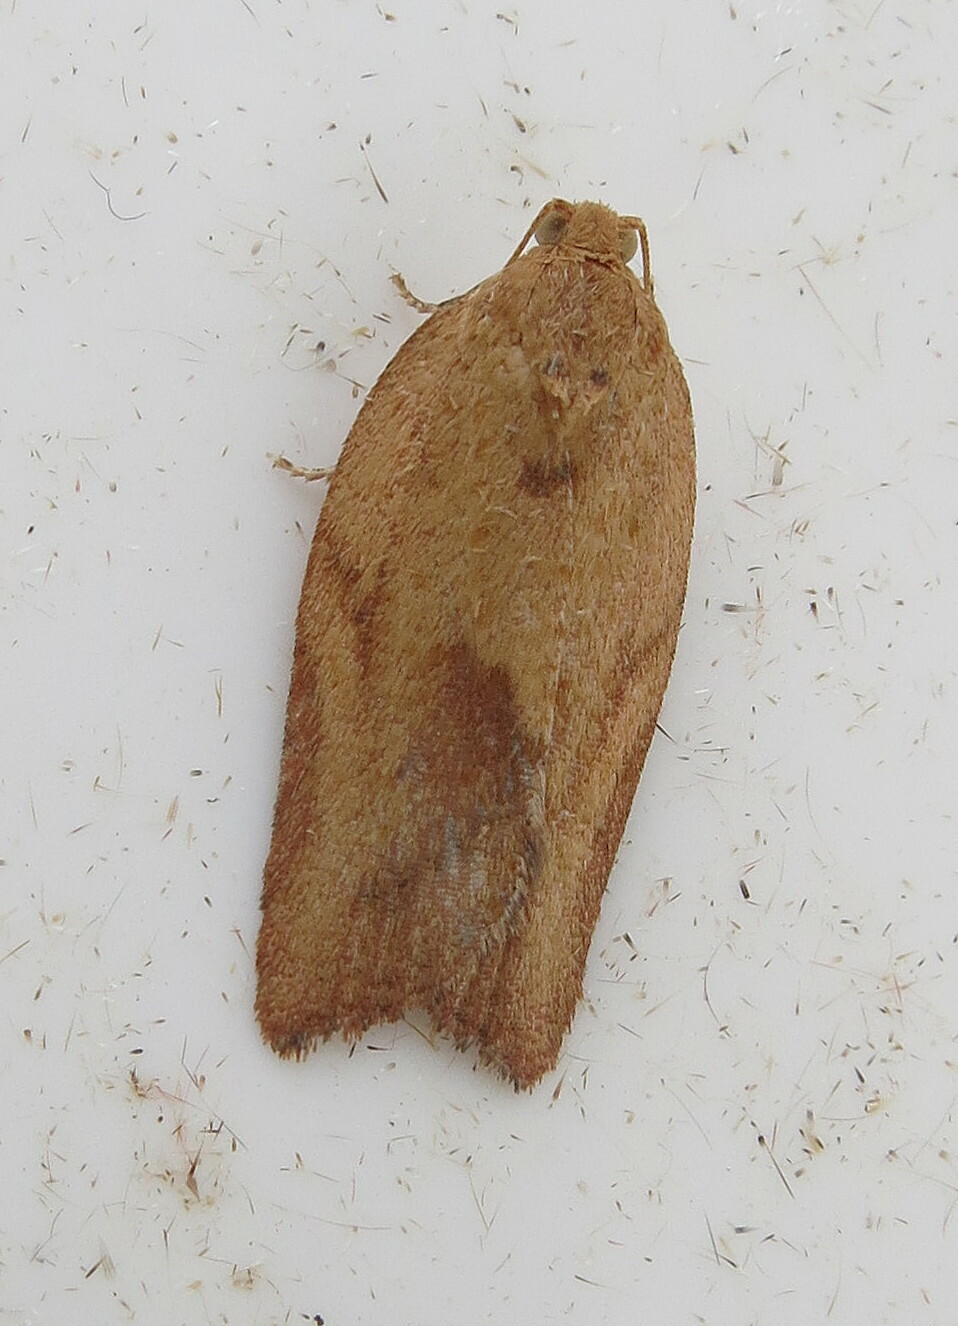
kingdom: Animalia
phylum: Arthropoda
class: Insecta
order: Lepidoptera
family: Tortricidae
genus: Epiphyas
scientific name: Epiphyas postvittana
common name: Light brown apple moth
